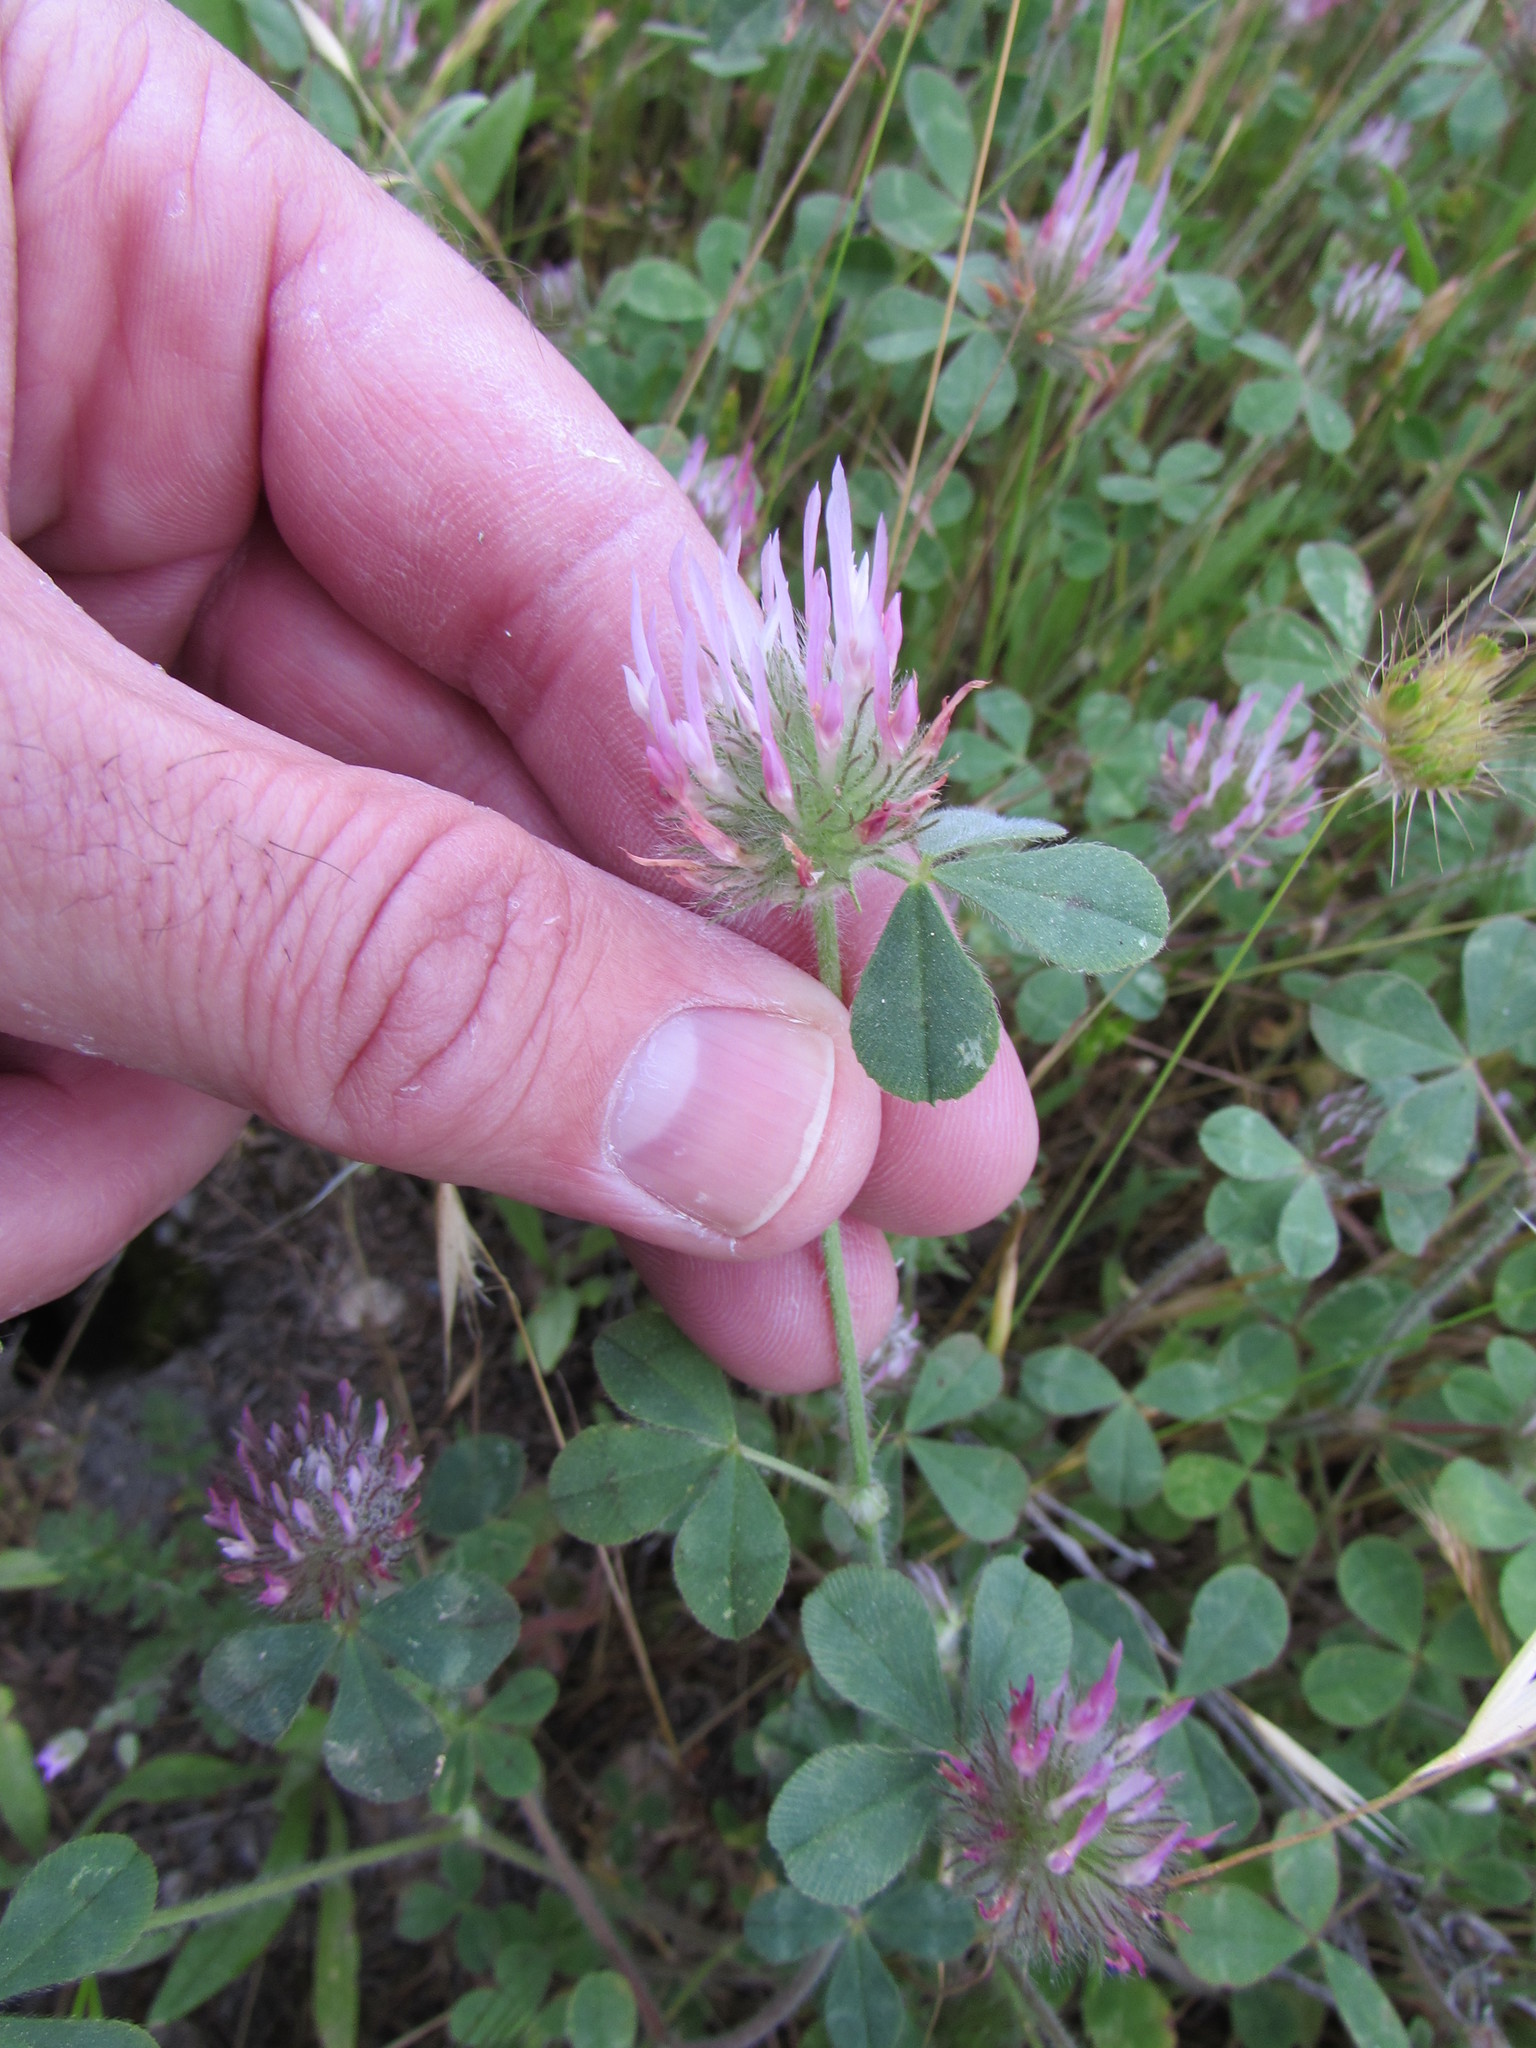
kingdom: Plantae
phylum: Tracheophyta
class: Magnoliopsida
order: Fabales
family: Fabaceae
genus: Trifolium
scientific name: Trifolium hirtum
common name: Rose clover
